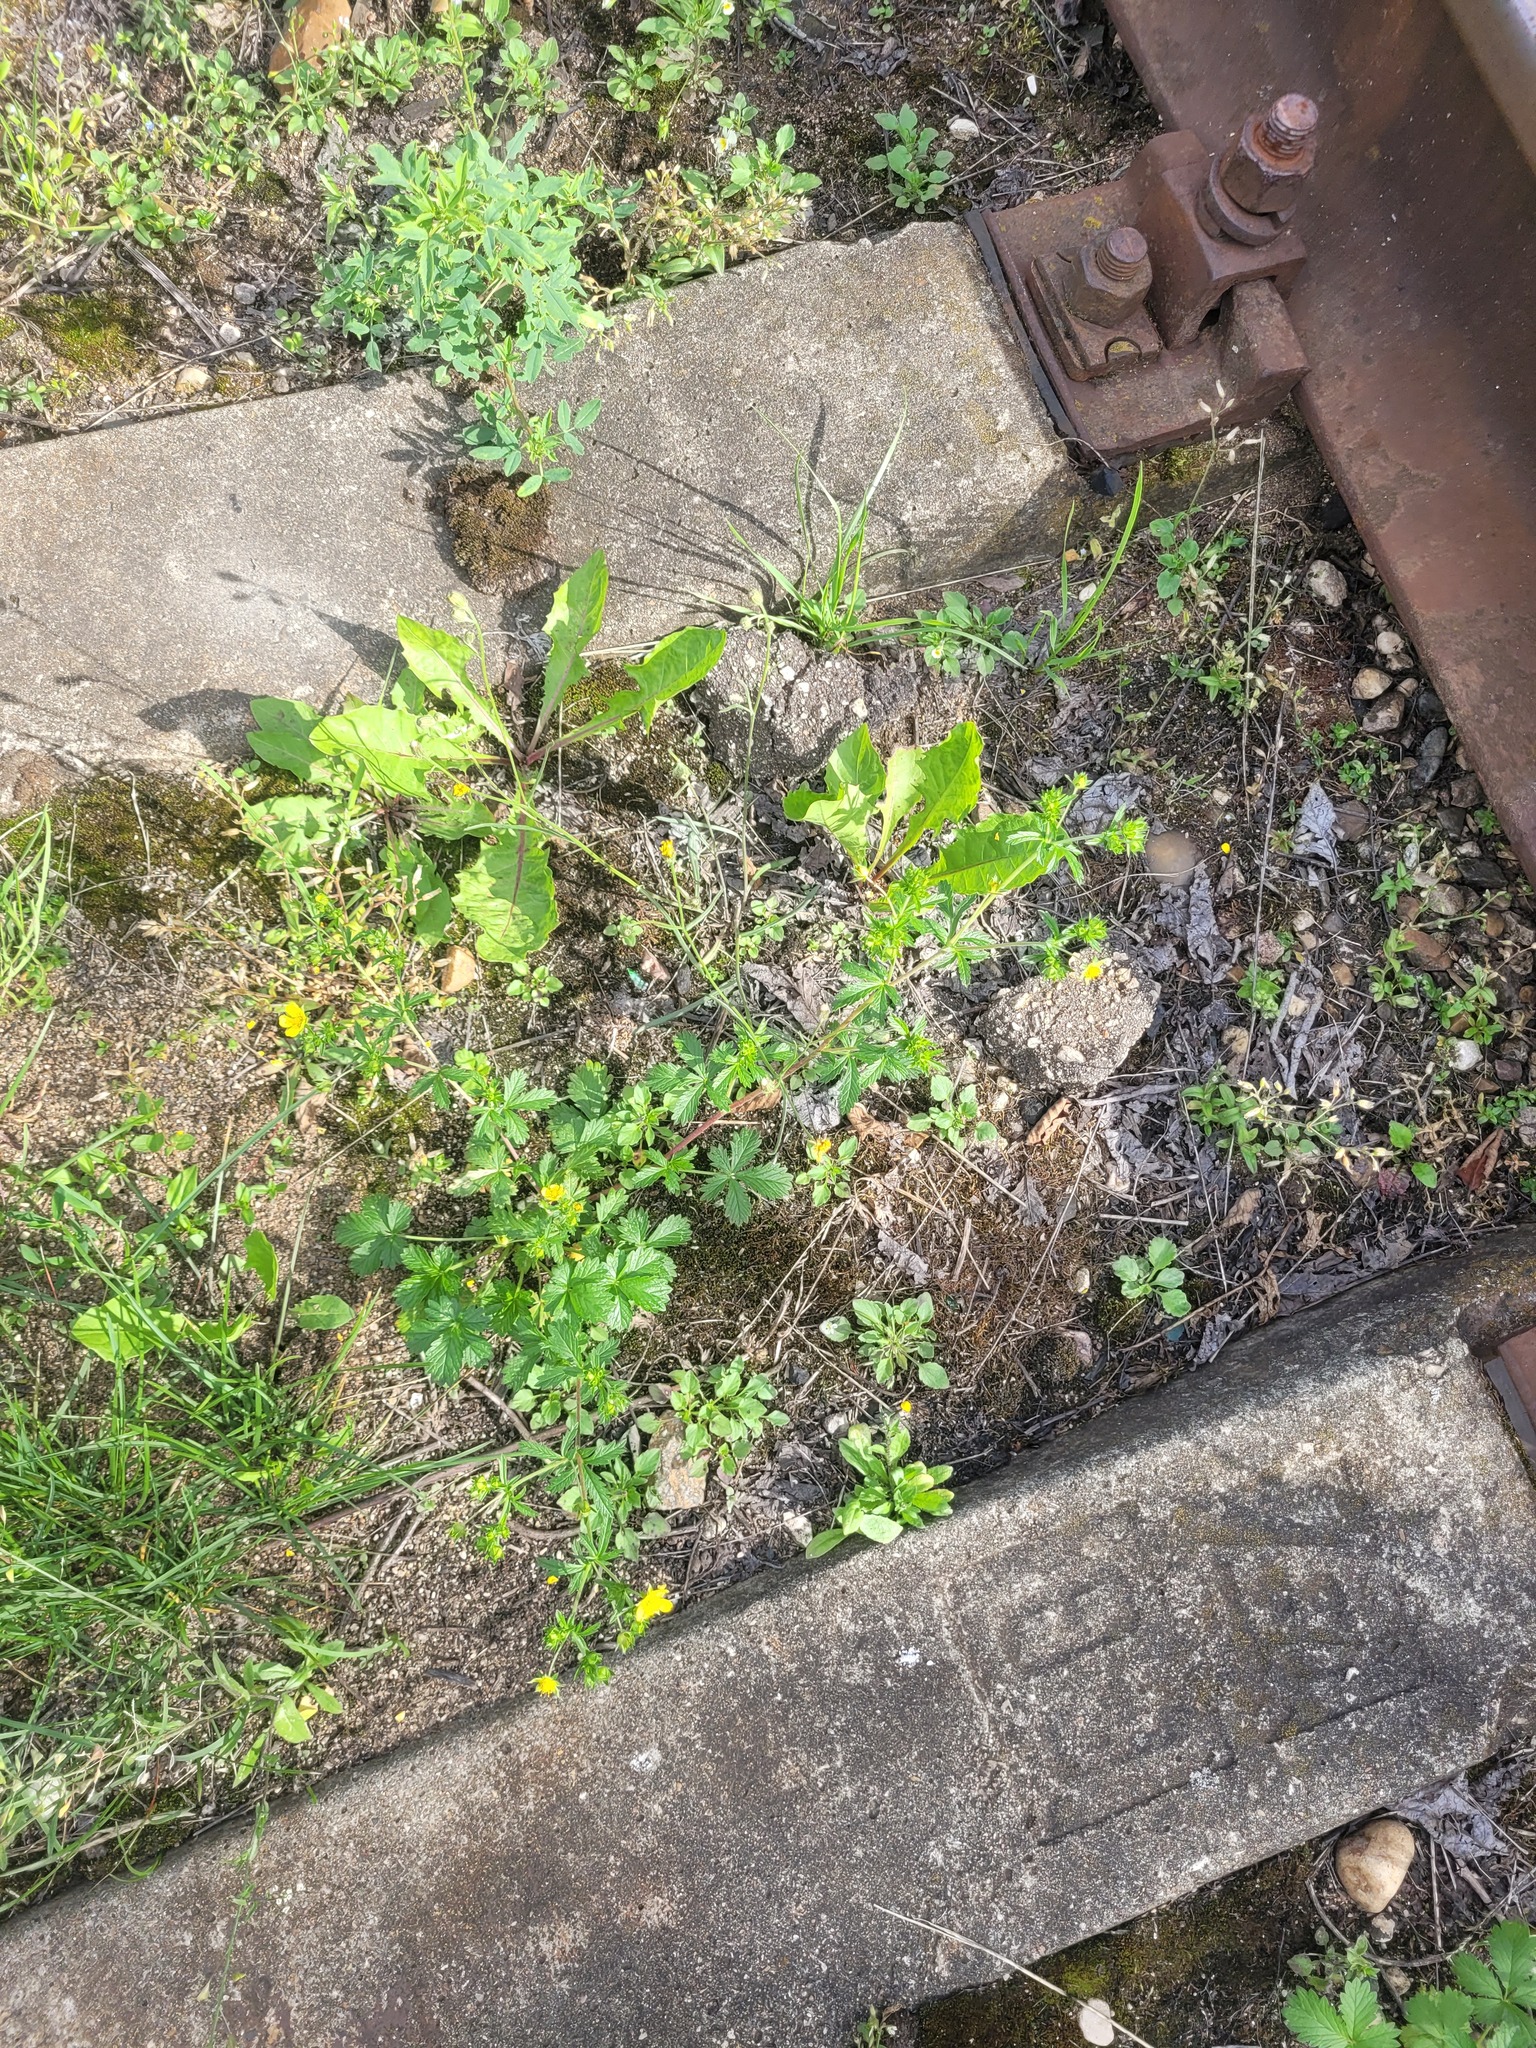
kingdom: Plantae
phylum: Tracheophyta
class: Magnoliopsida
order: Rosales
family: Rosaceae
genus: Potentilla
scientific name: Potentilla intermedia
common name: Downy cinquefoil
